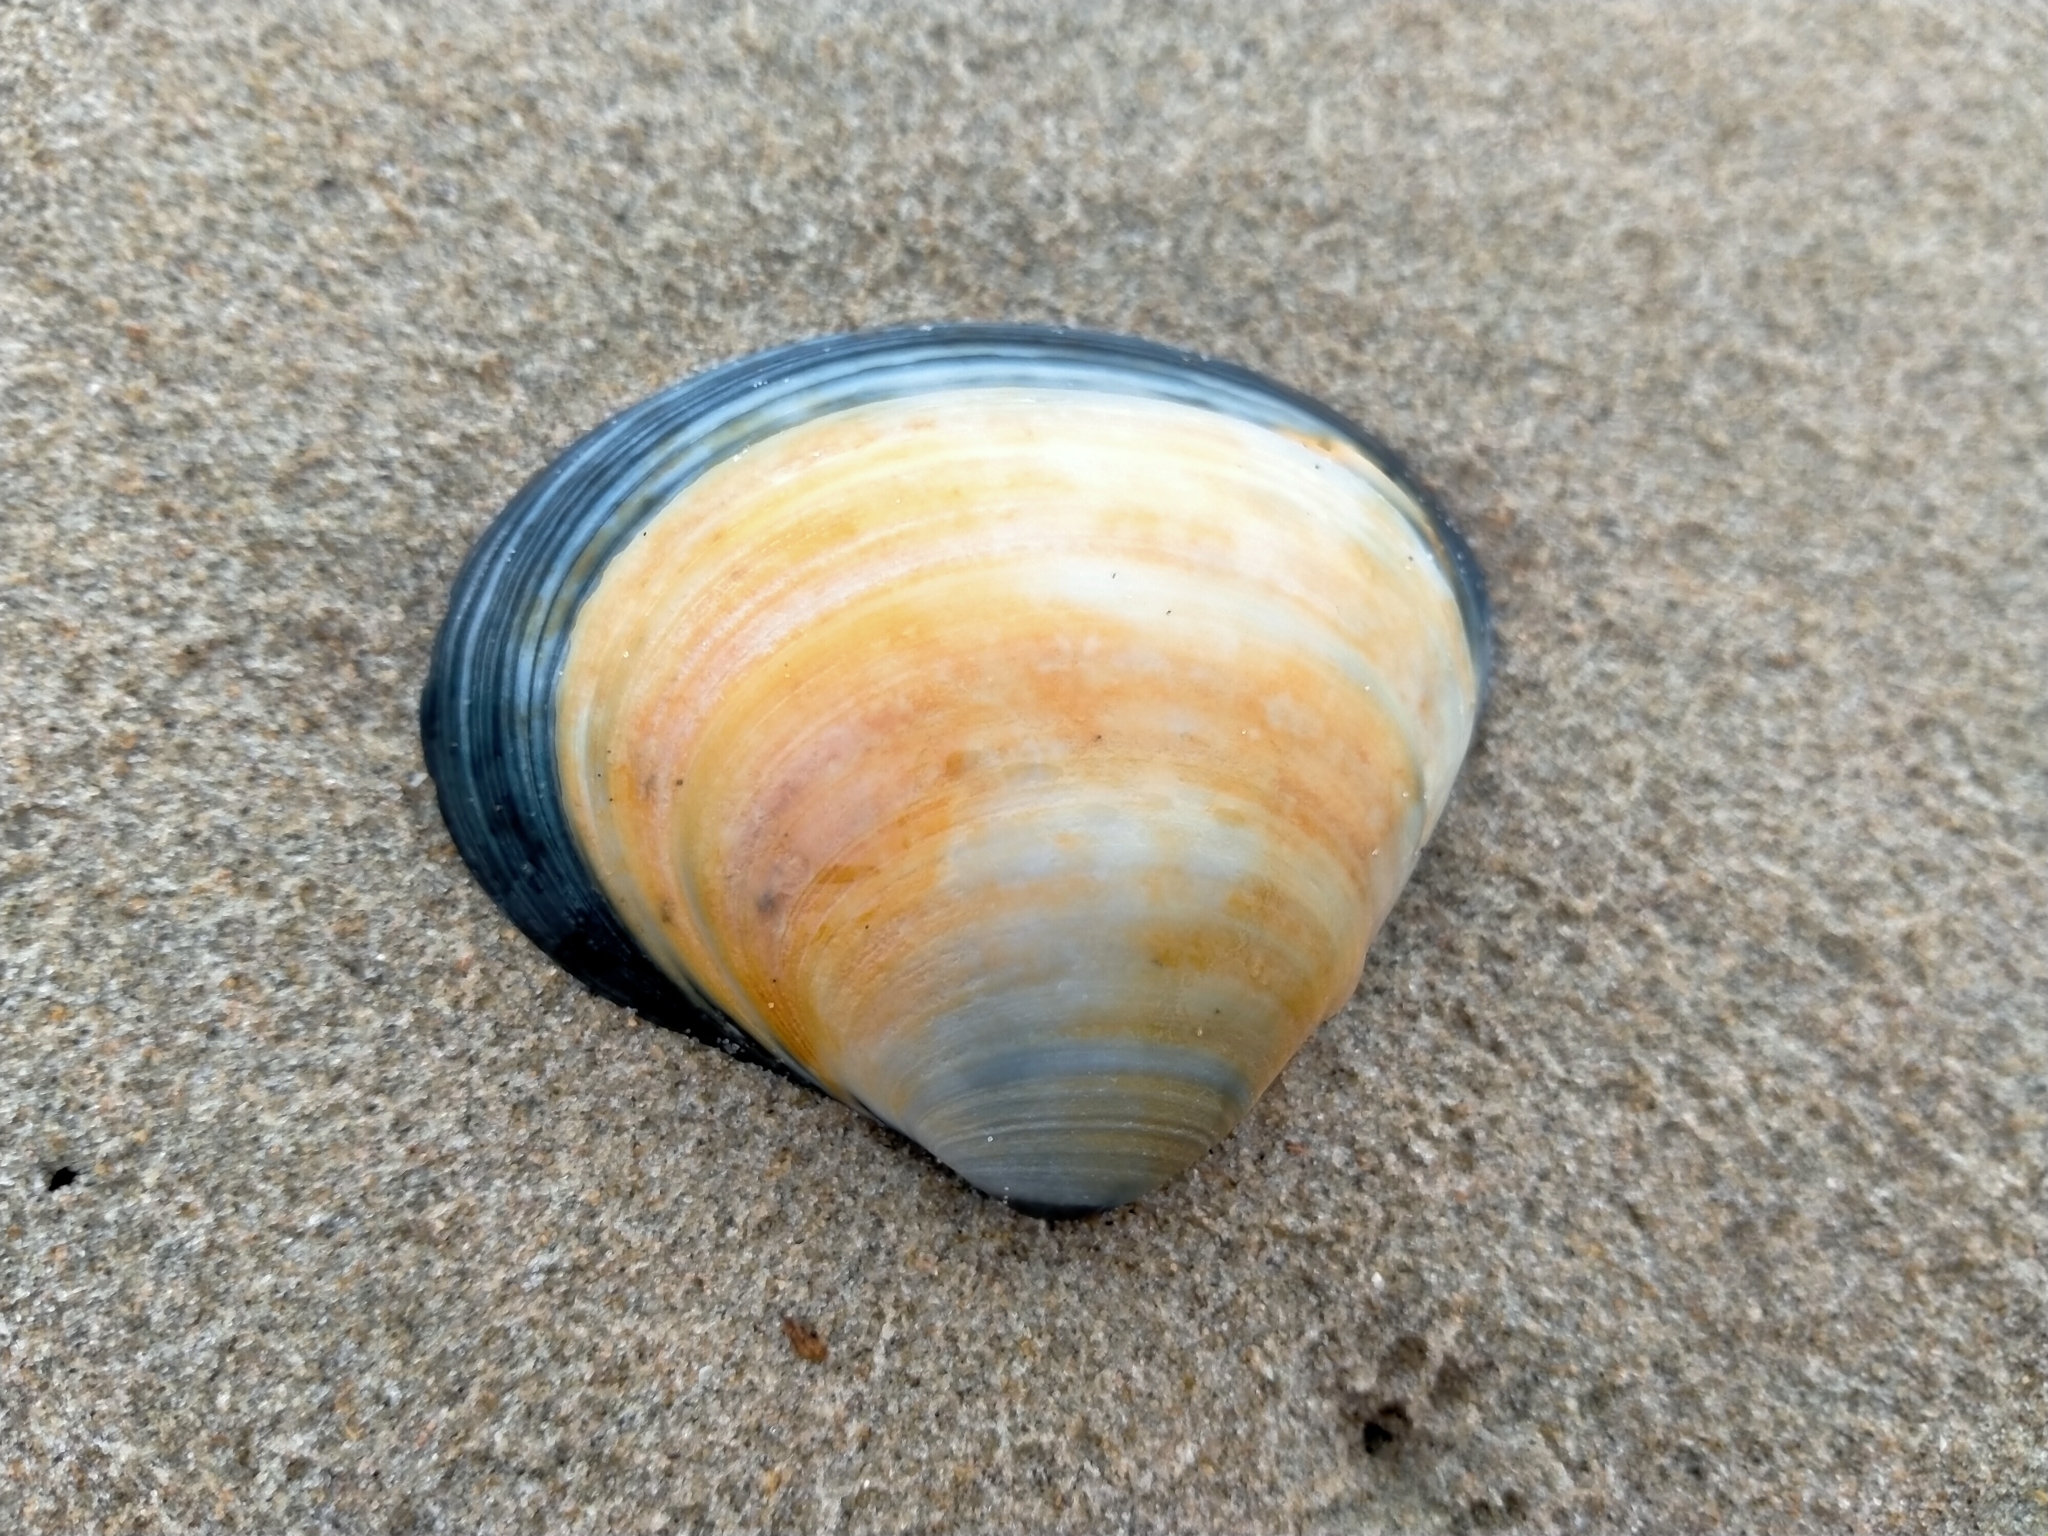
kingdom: Animalia
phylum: Mollusca
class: Bivalvia
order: Venerida
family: Mactridae
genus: Spisula
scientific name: Spisula discors
